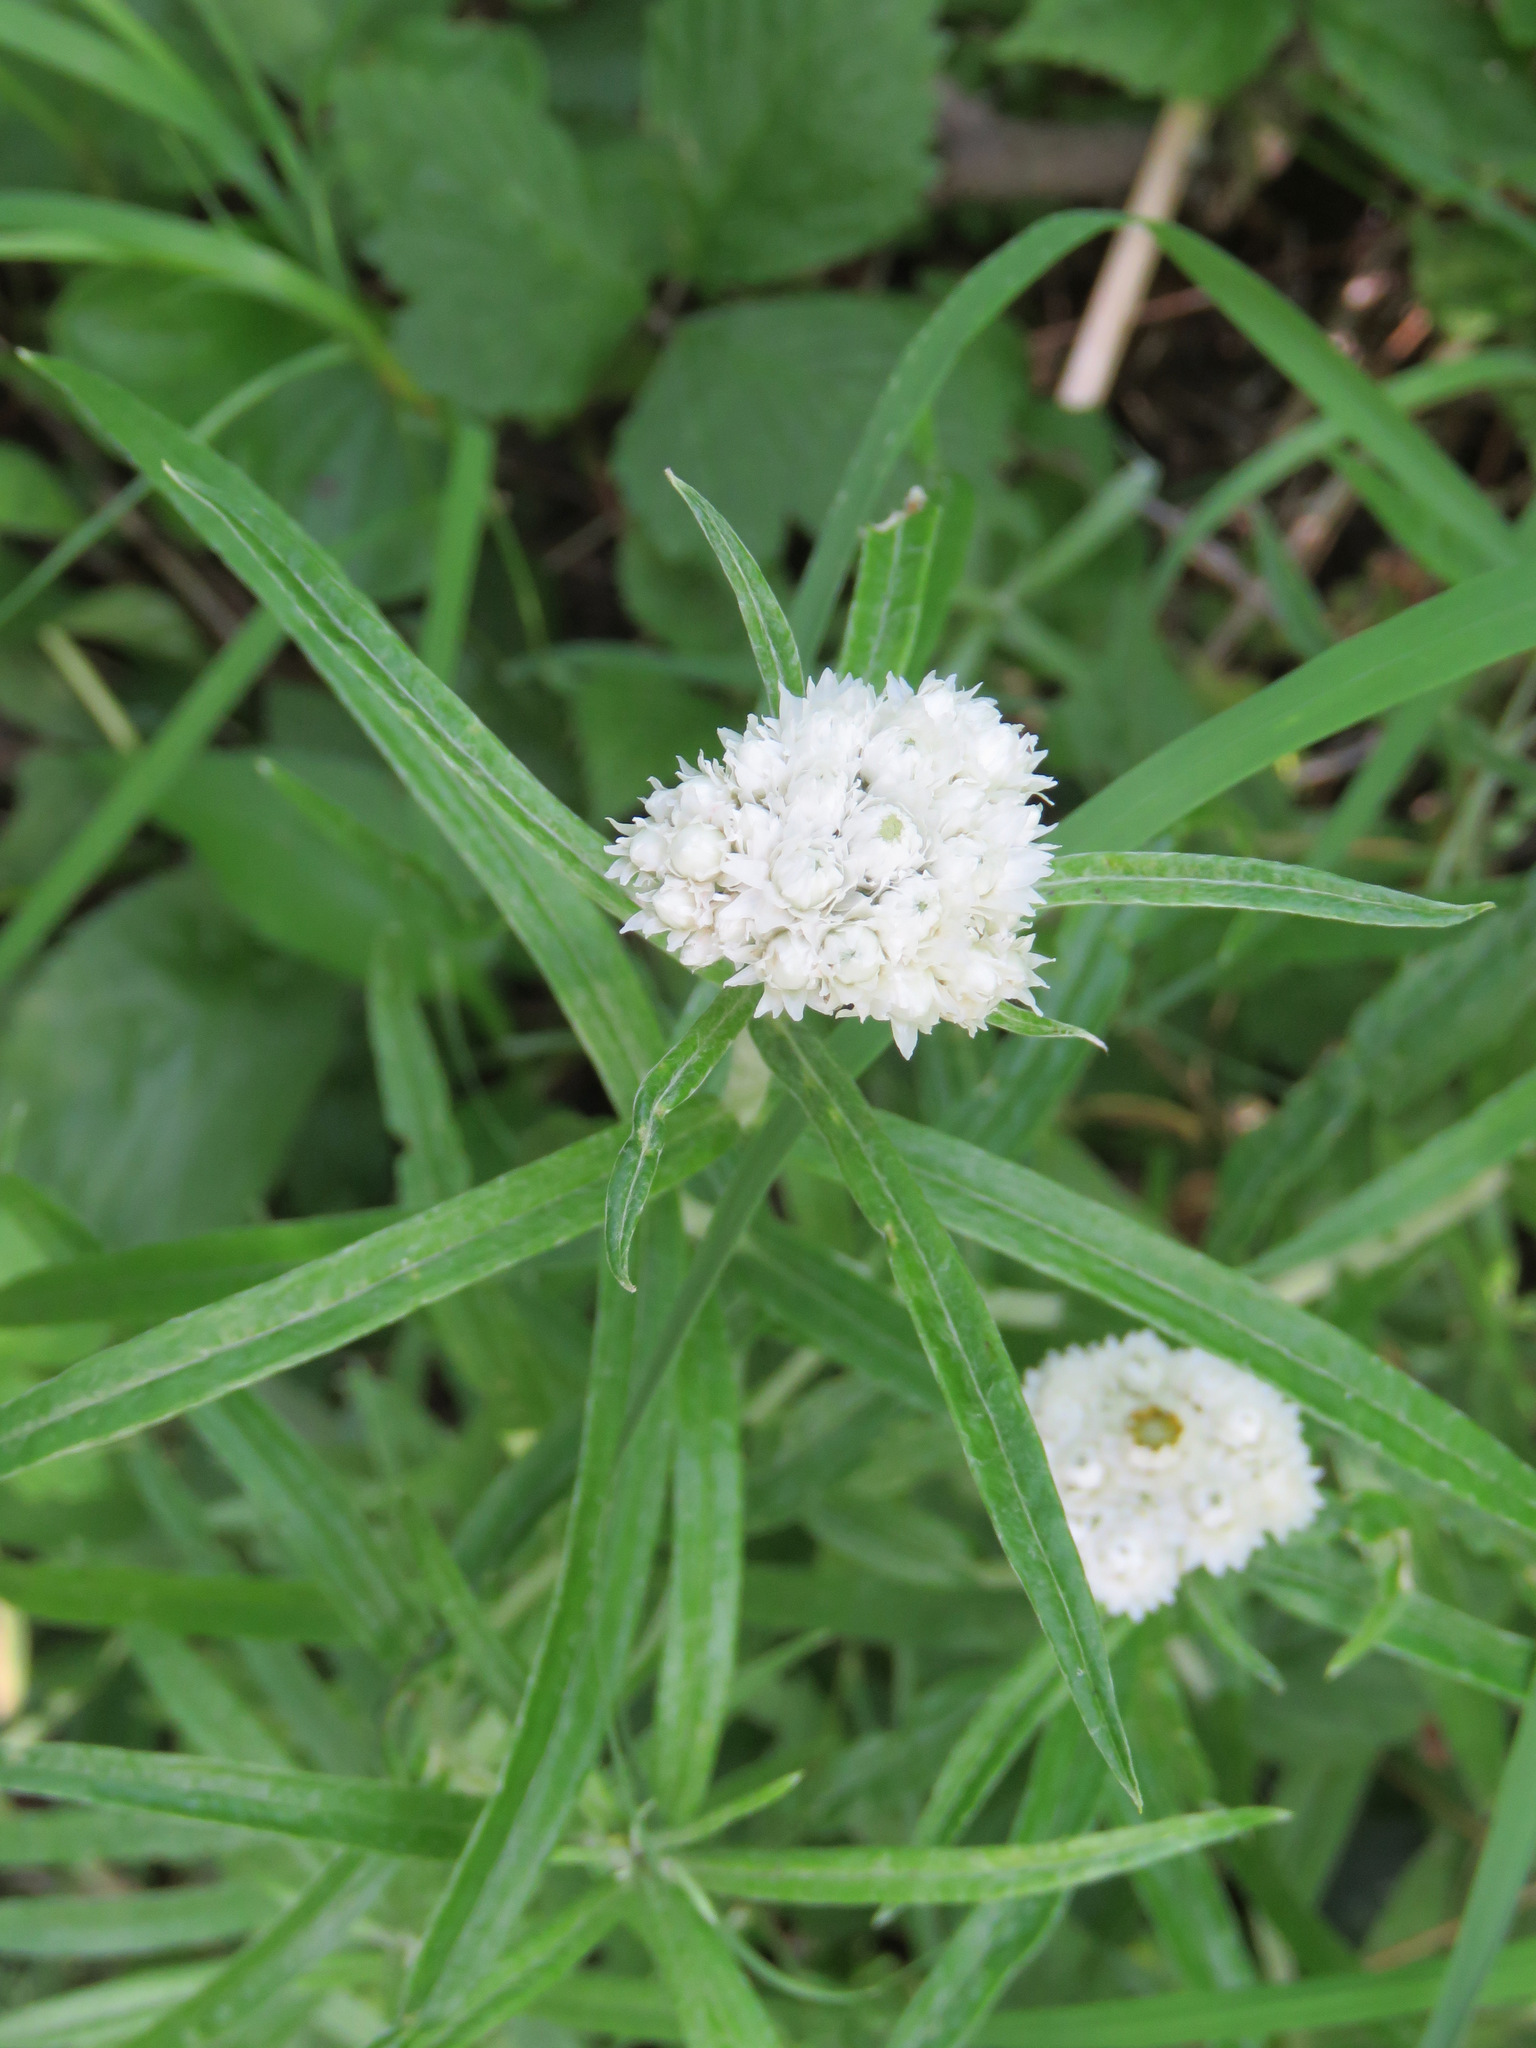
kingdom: Plantae
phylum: Tracheophyta
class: Magnoliopsida
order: Asterales
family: Asteraceae
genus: Anaphalis
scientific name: Anaphalis margaritacea
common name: Pearly everlasting
